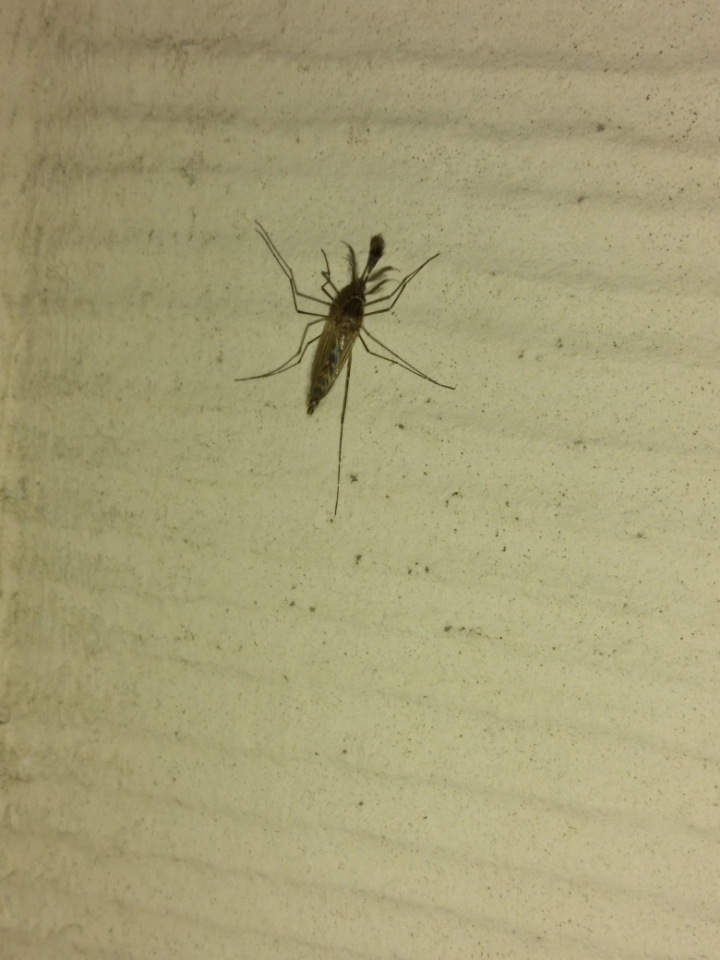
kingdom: Animalia
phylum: Arthropoda
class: Insecta
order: Diptera
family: Culicidae
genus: Coquillettidia
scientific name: Coquillettidia perturbans
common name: Cattail mosquito
